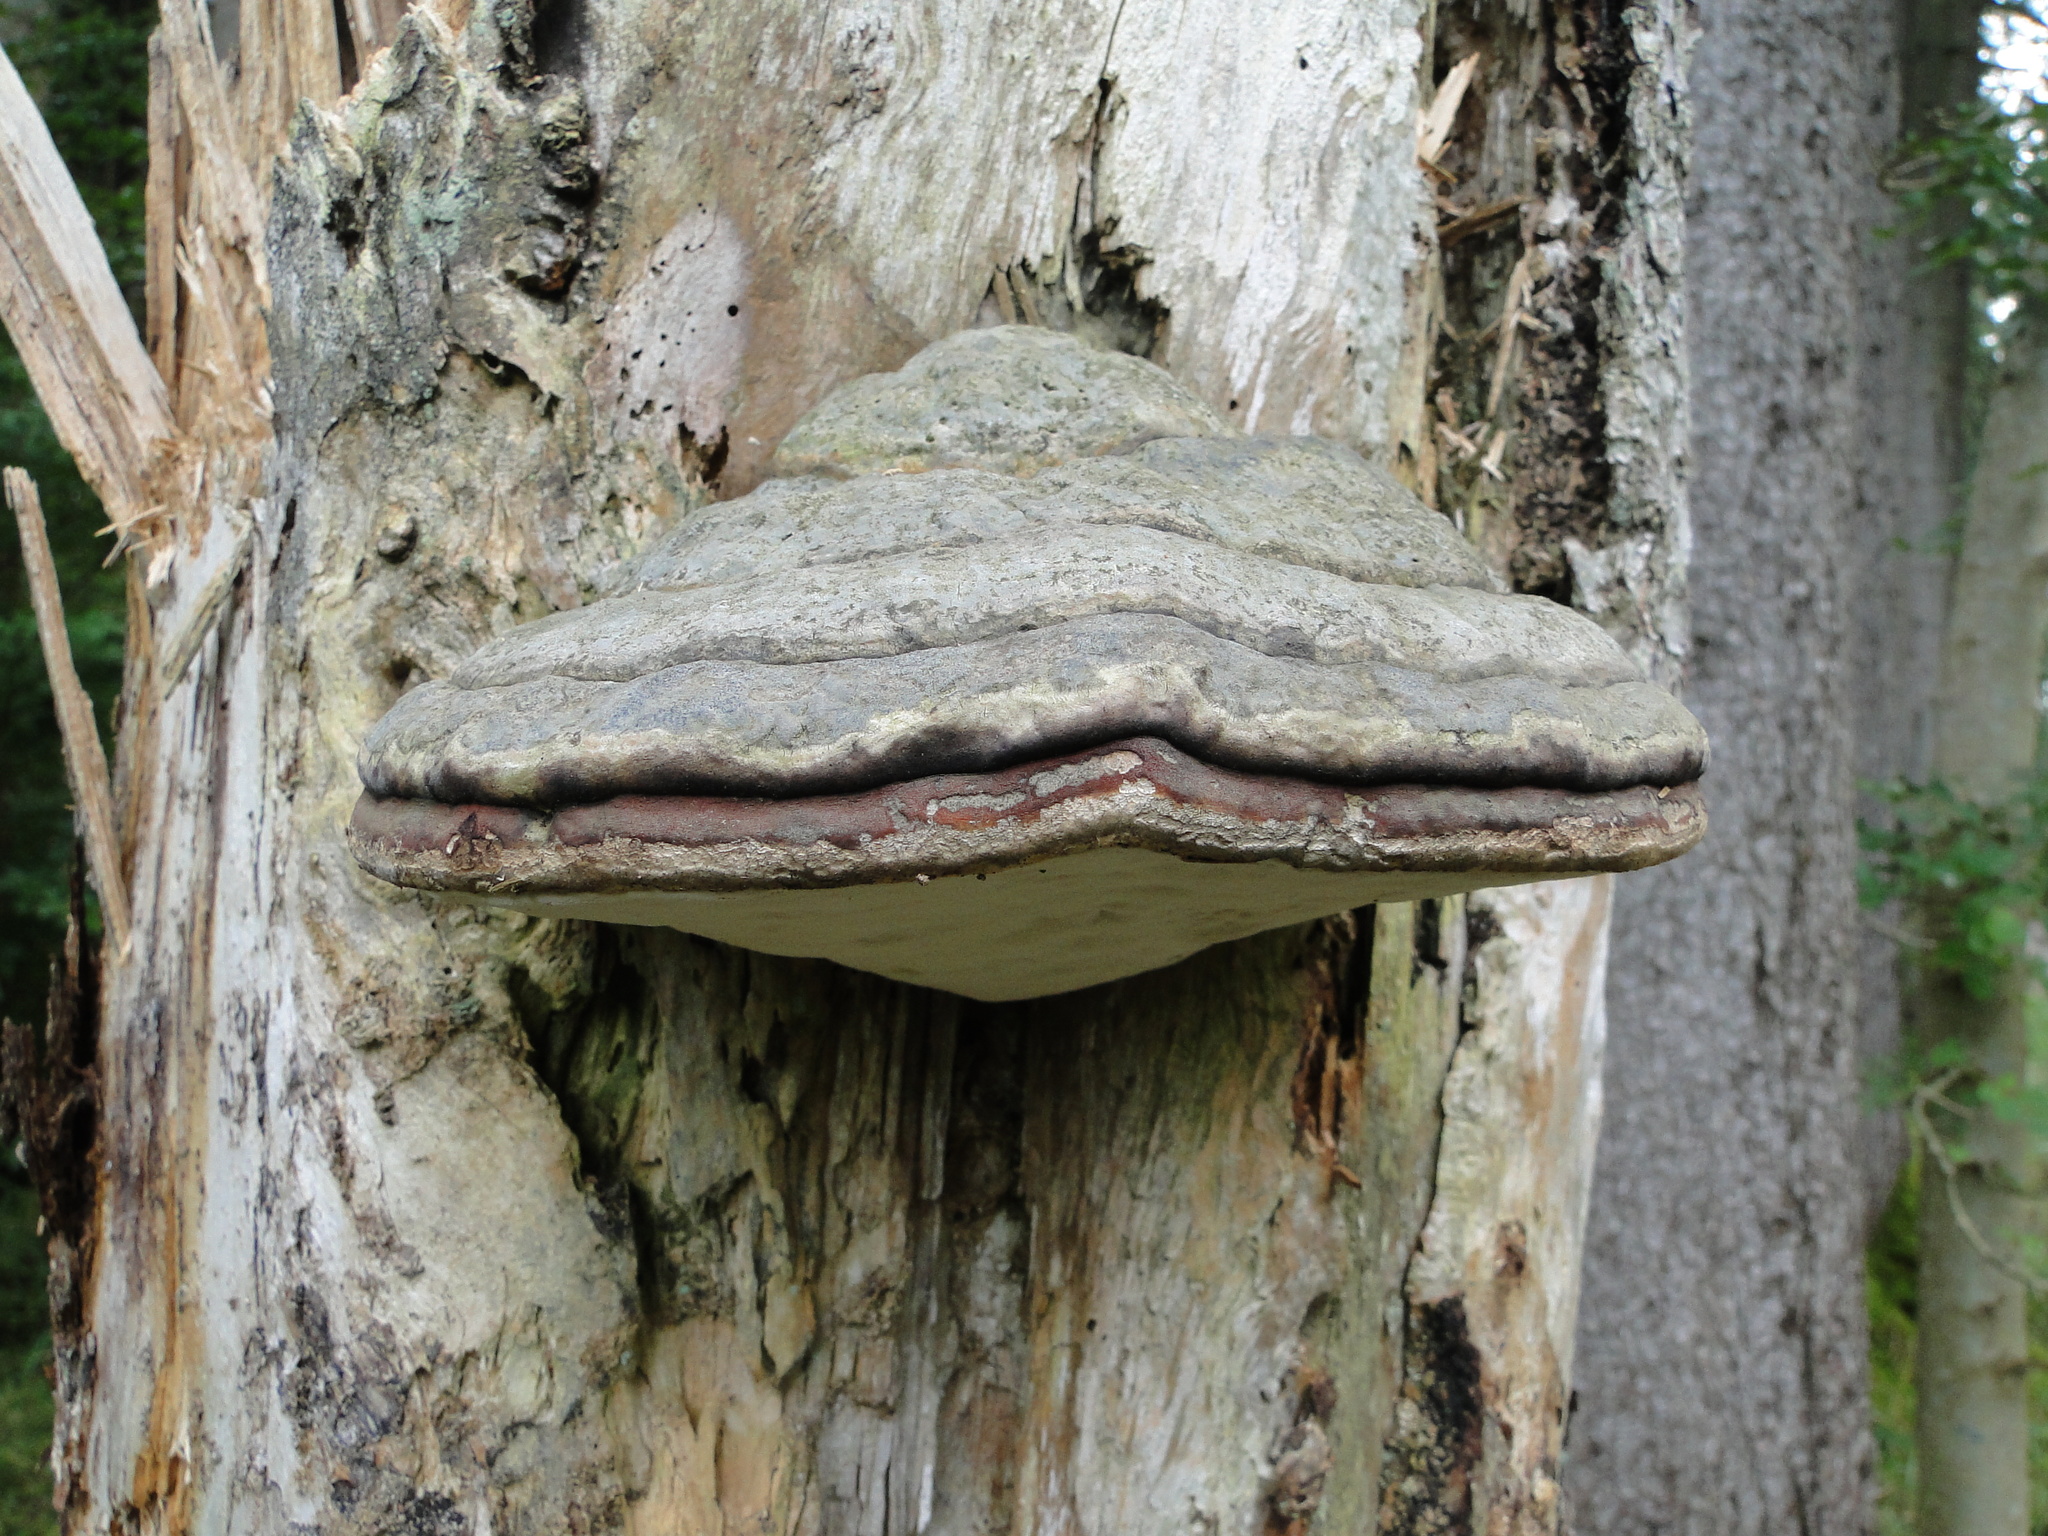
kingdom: Fungi
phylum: Basidiomycota
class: Agaricomycetes
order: Polyporales
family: Polyporaceae
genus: Fomes
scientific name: Fomes fomentarius
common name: Hoof fungus
